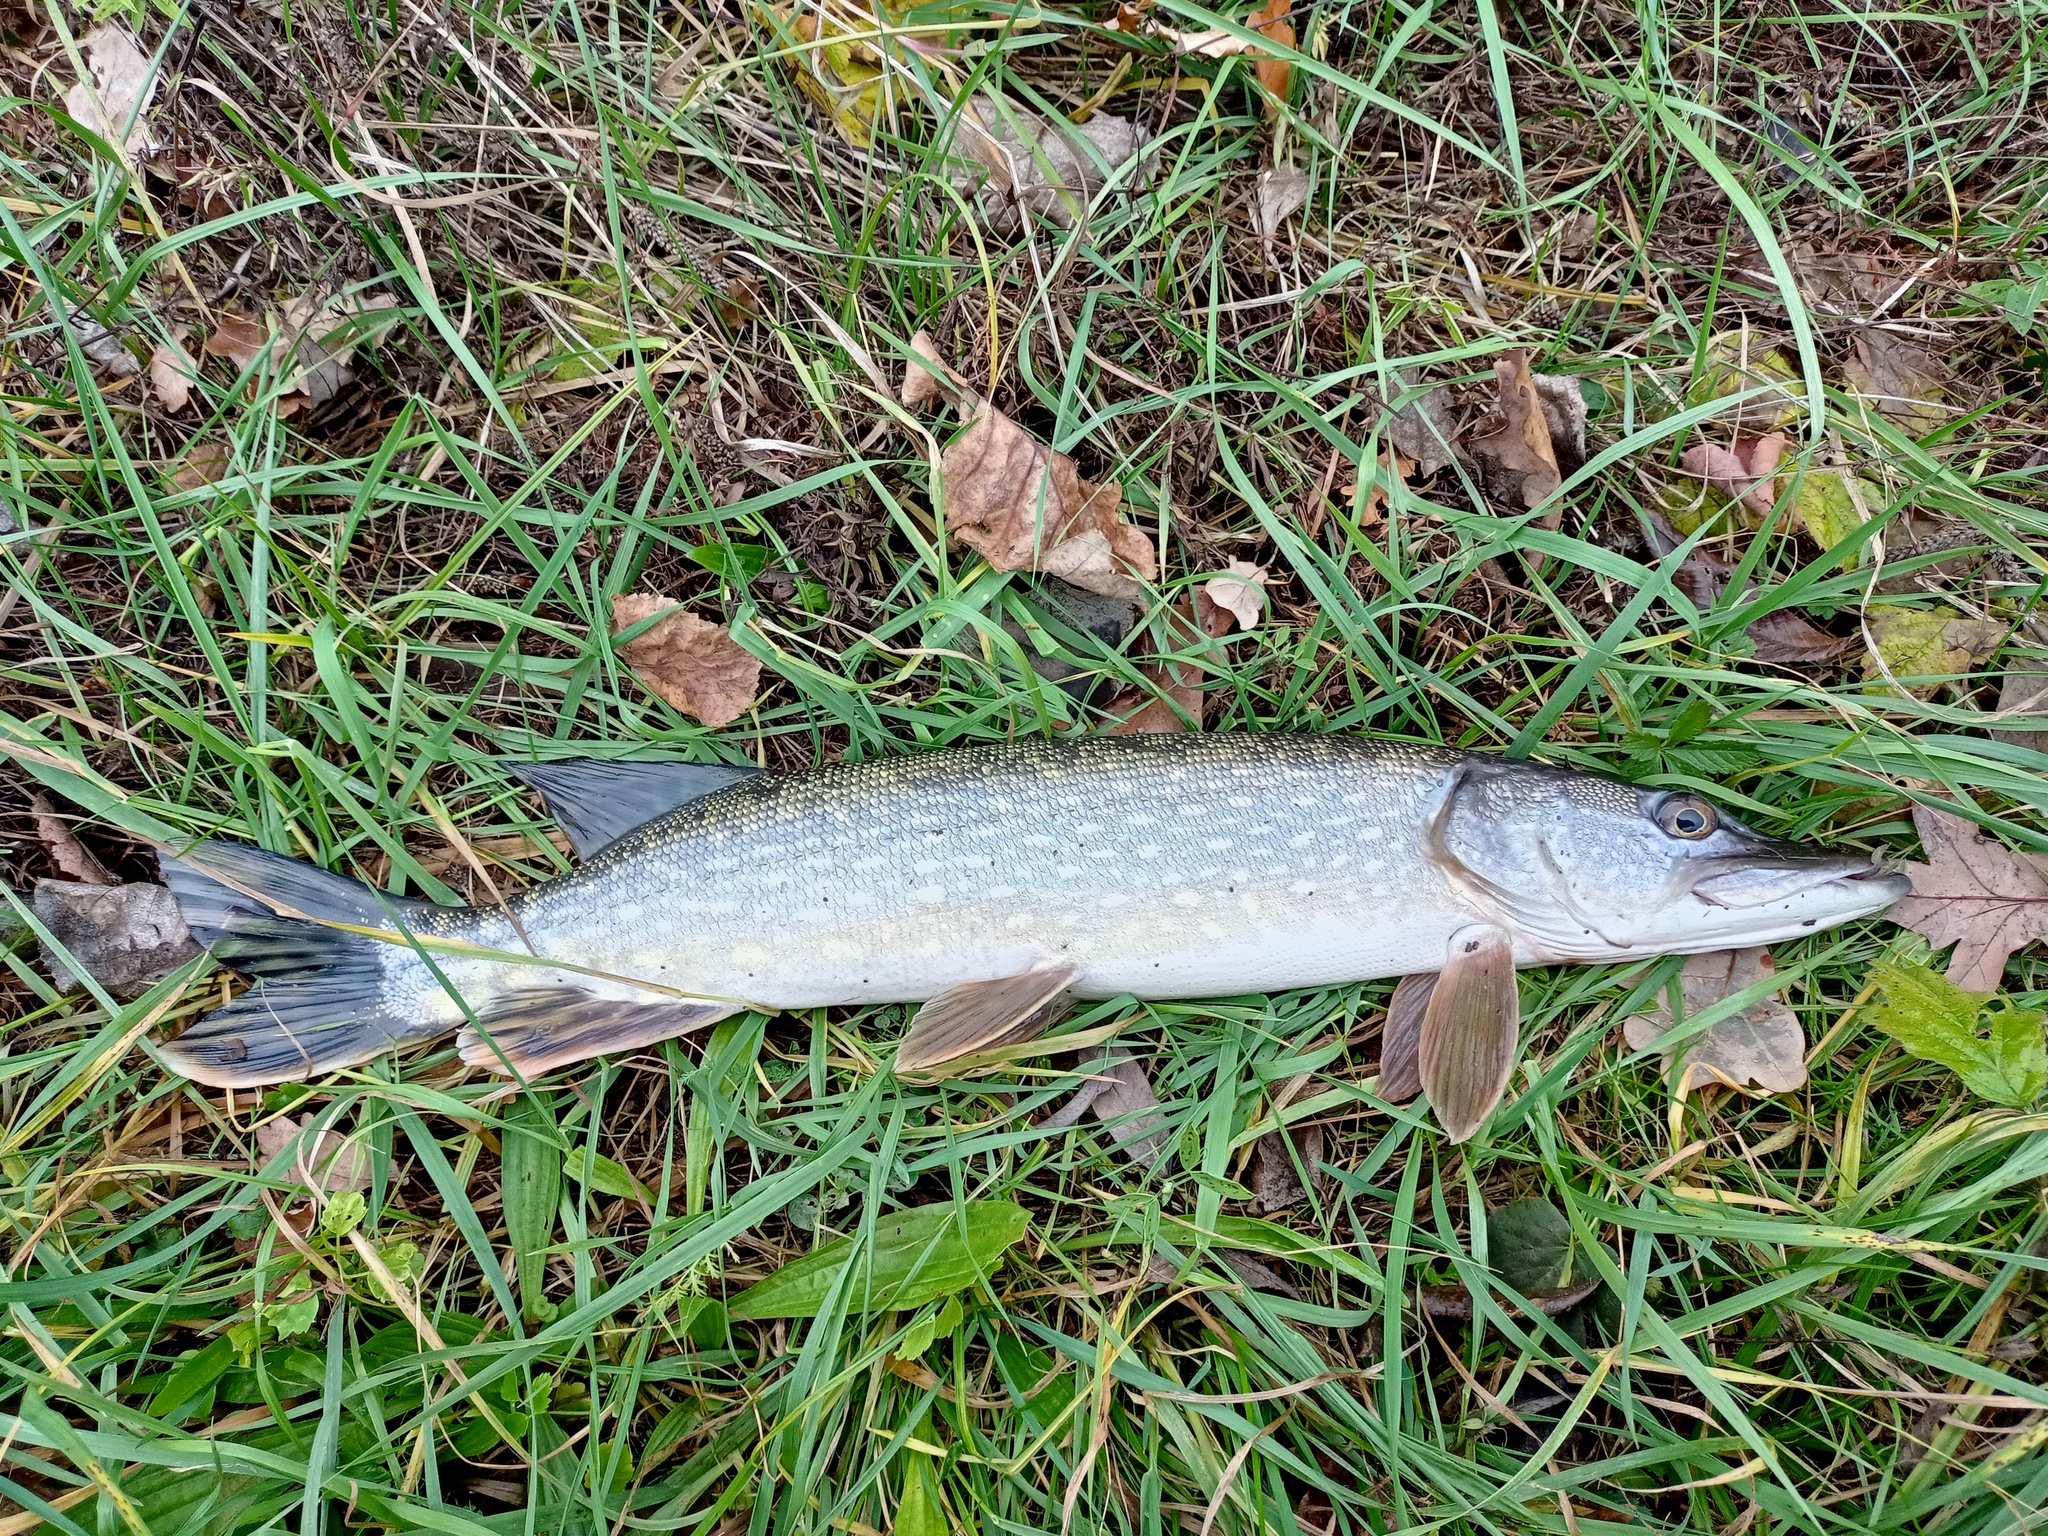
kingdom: Animalia
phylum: Chordata
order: Esociformes
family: Esocidae
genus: Esox
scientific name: Esox lucius
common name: Northern pike
